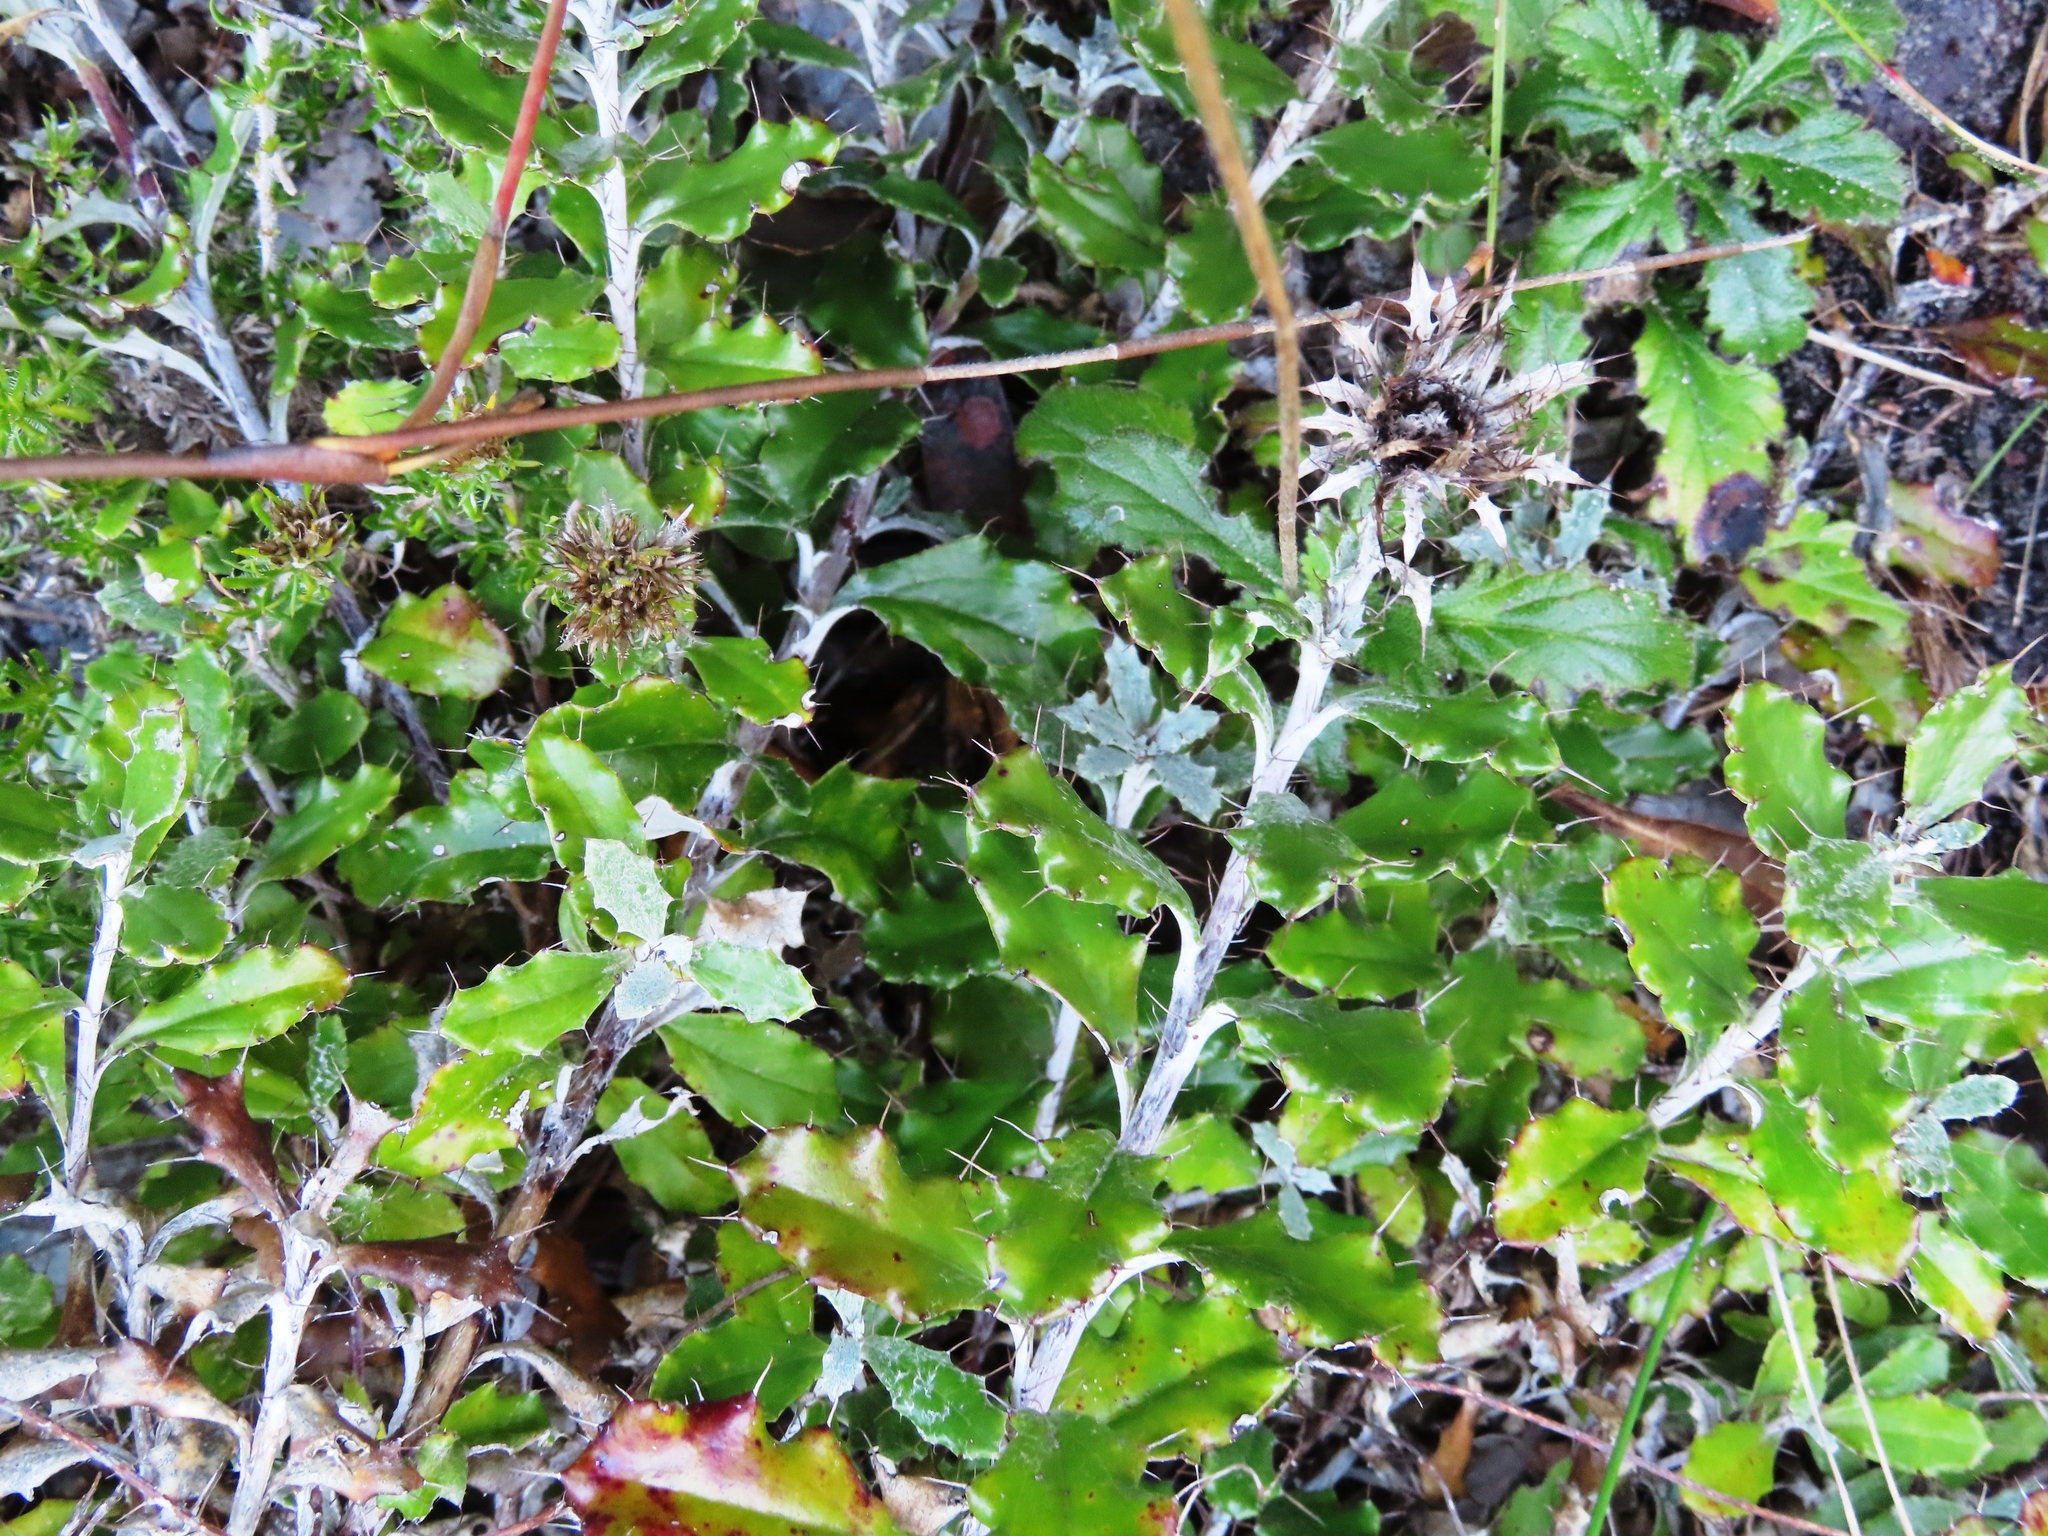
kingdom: Plantae
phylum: Tracheophyta
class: Magnoliopsida
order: Asterales
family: Asteraceae
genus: Berkheya
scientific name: Berkheya barbata
